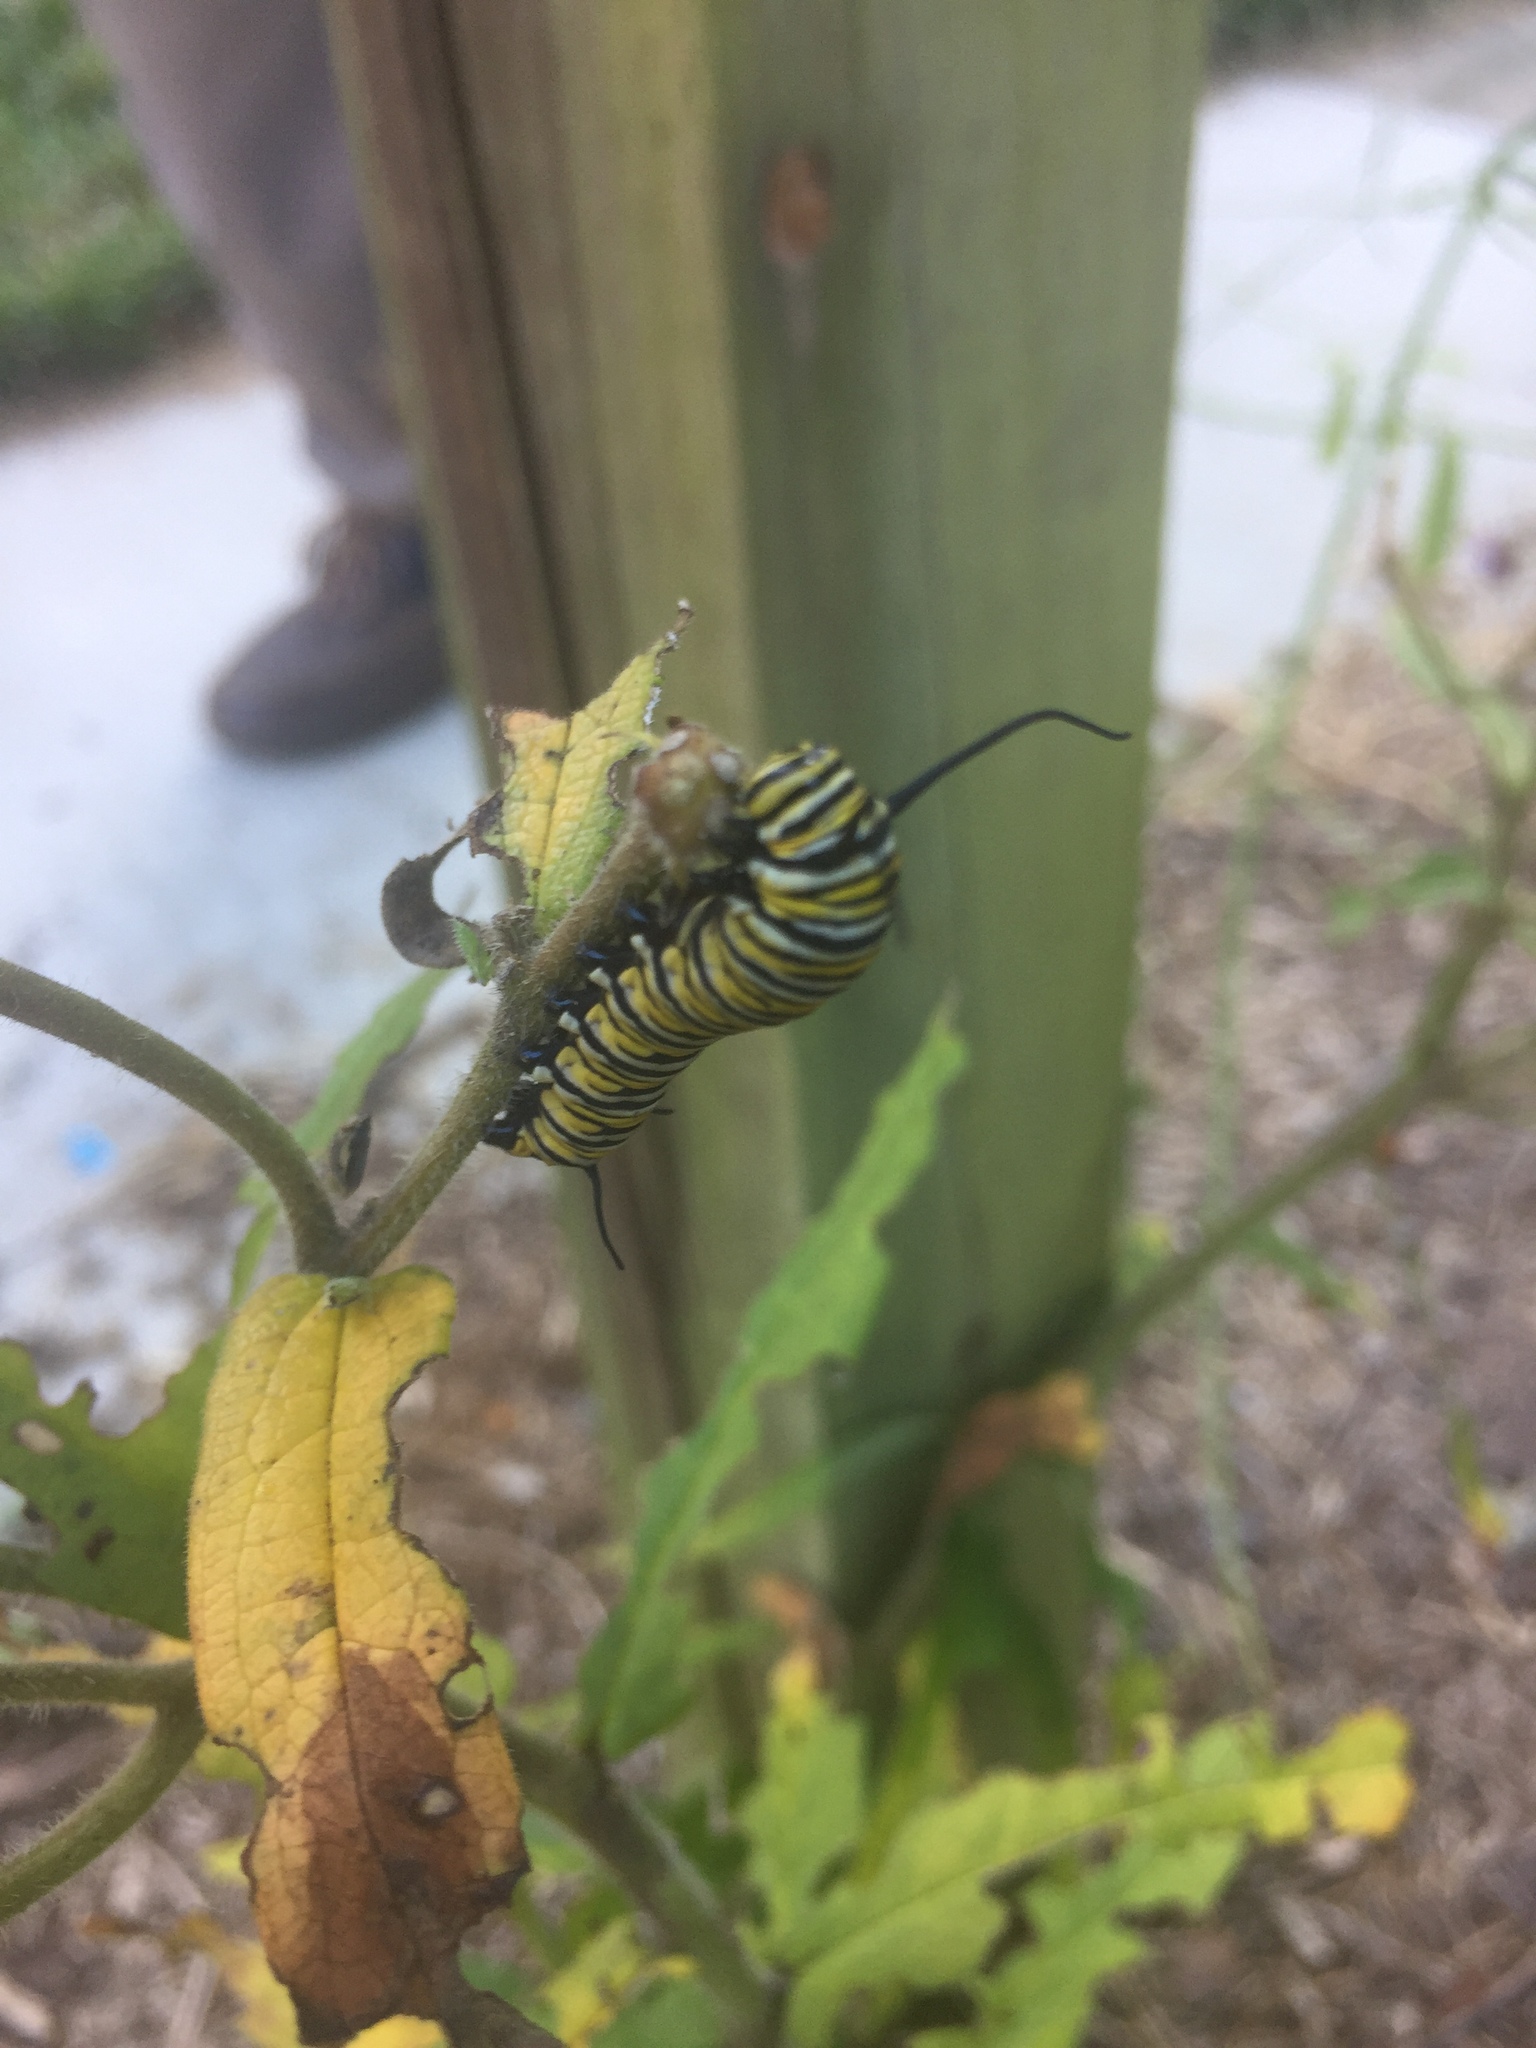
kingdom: Animalia
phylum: Arthropoda
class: Insecta
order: Lepidoptera
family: Nymphalidae
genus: Danaus
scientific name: Danaus plexippus
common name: Monarch
